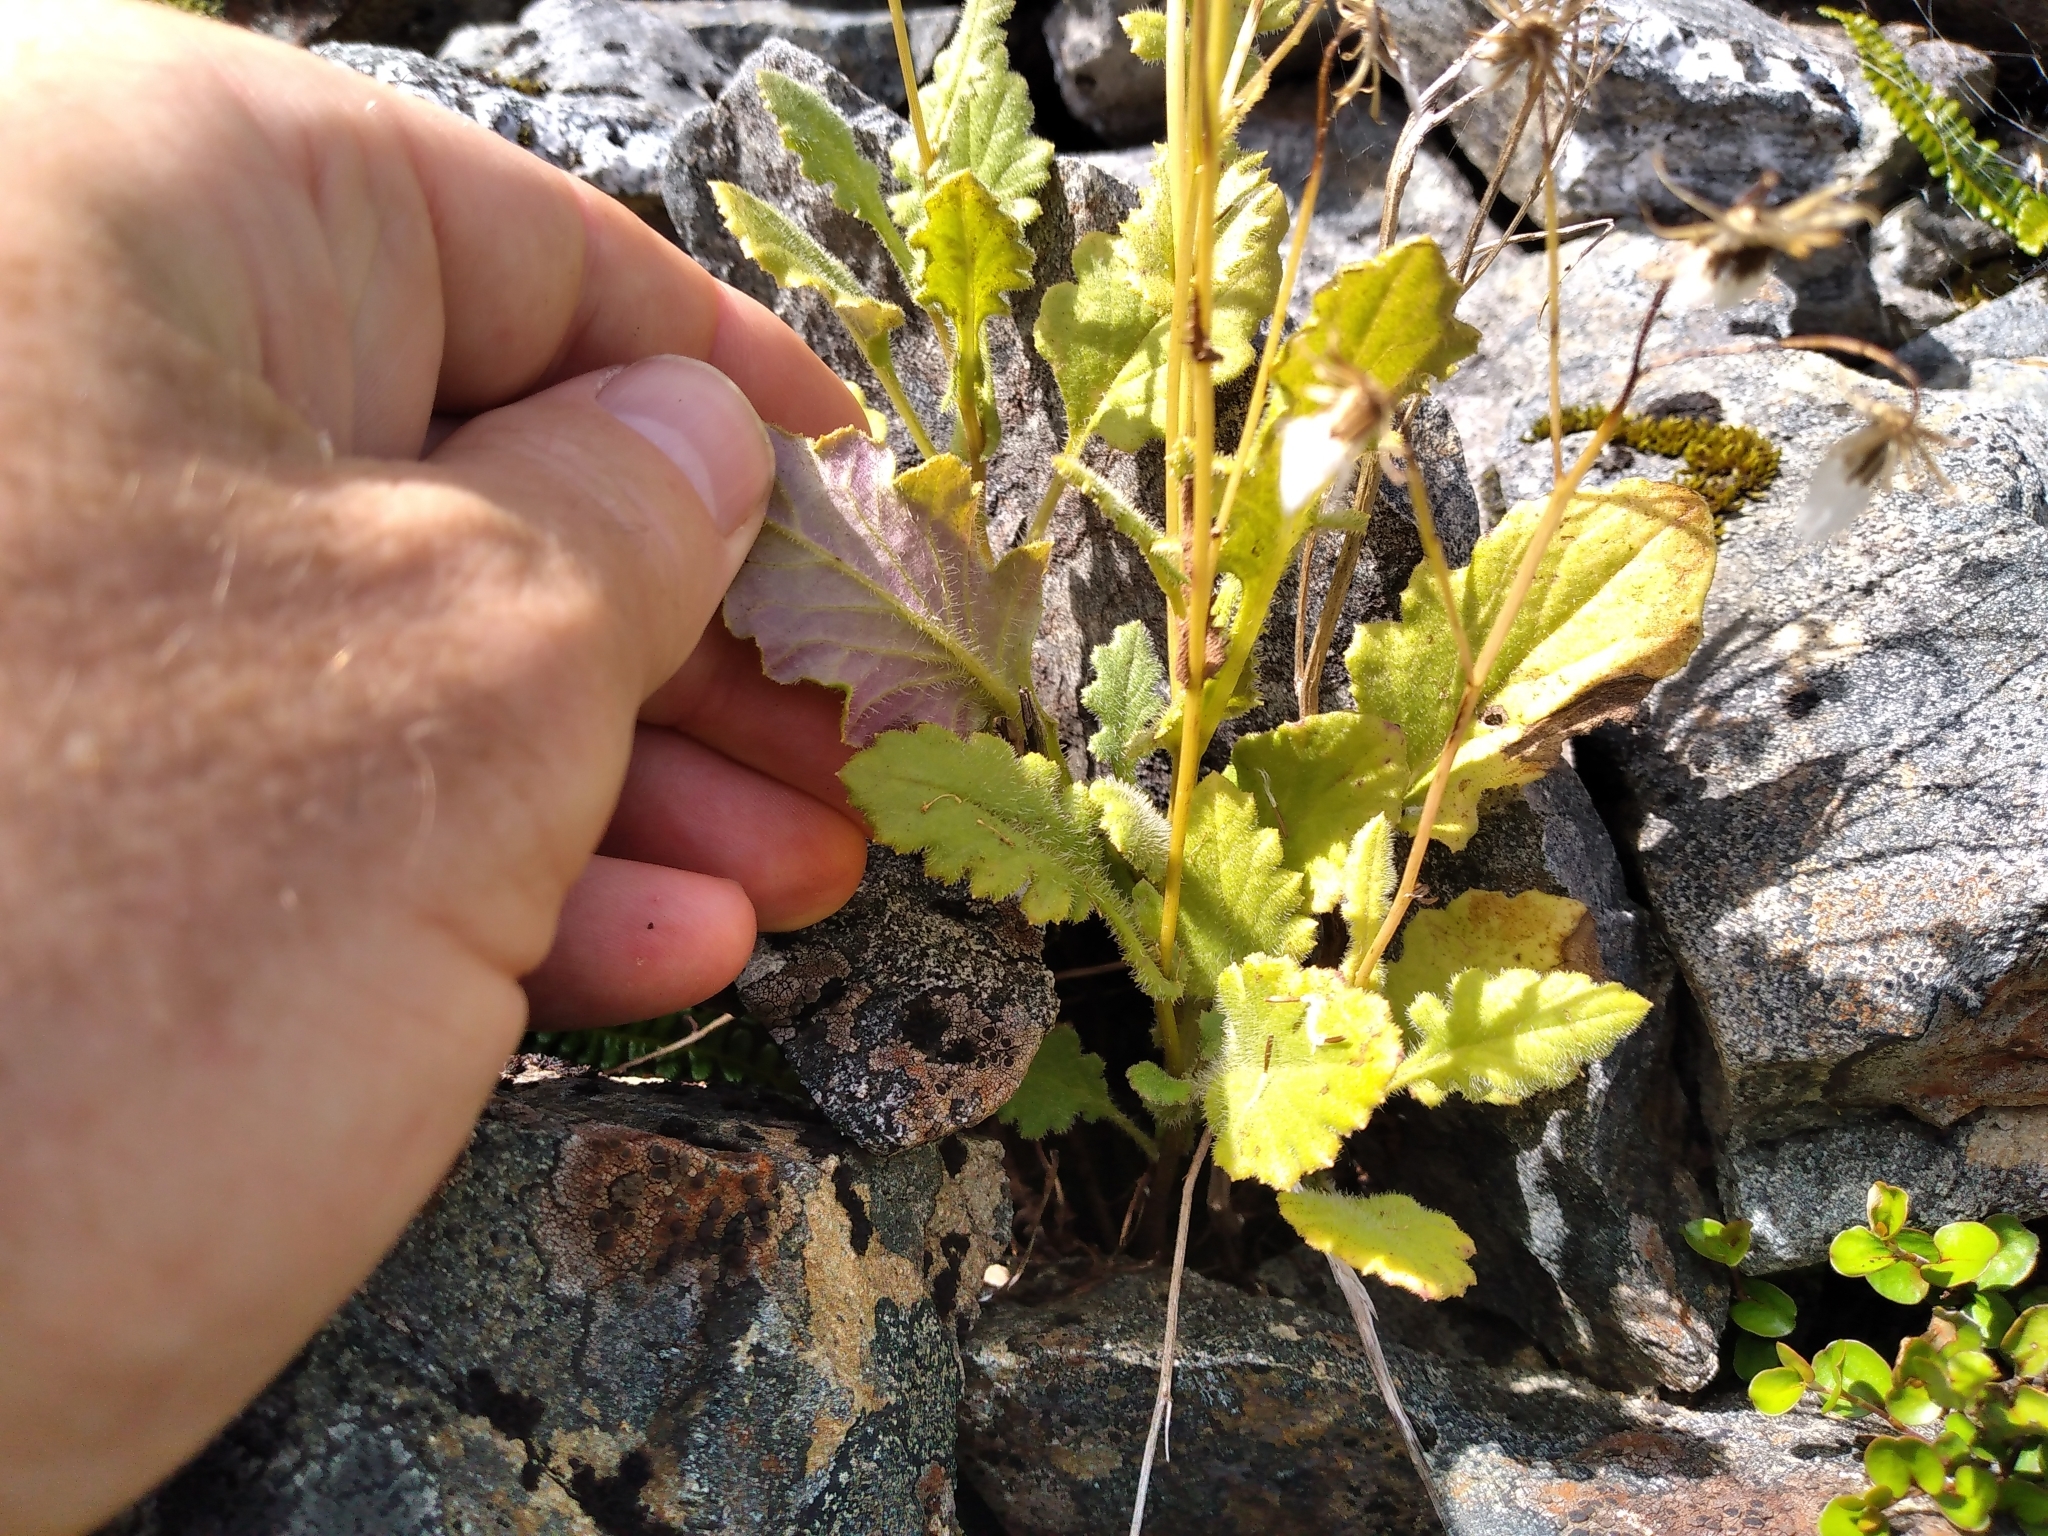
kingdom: Plantae
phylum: Tracheophyta
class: Magnoliopsida
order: Asterales
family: Asteraceae
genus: Senecio
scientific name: Senecio wairauensis
